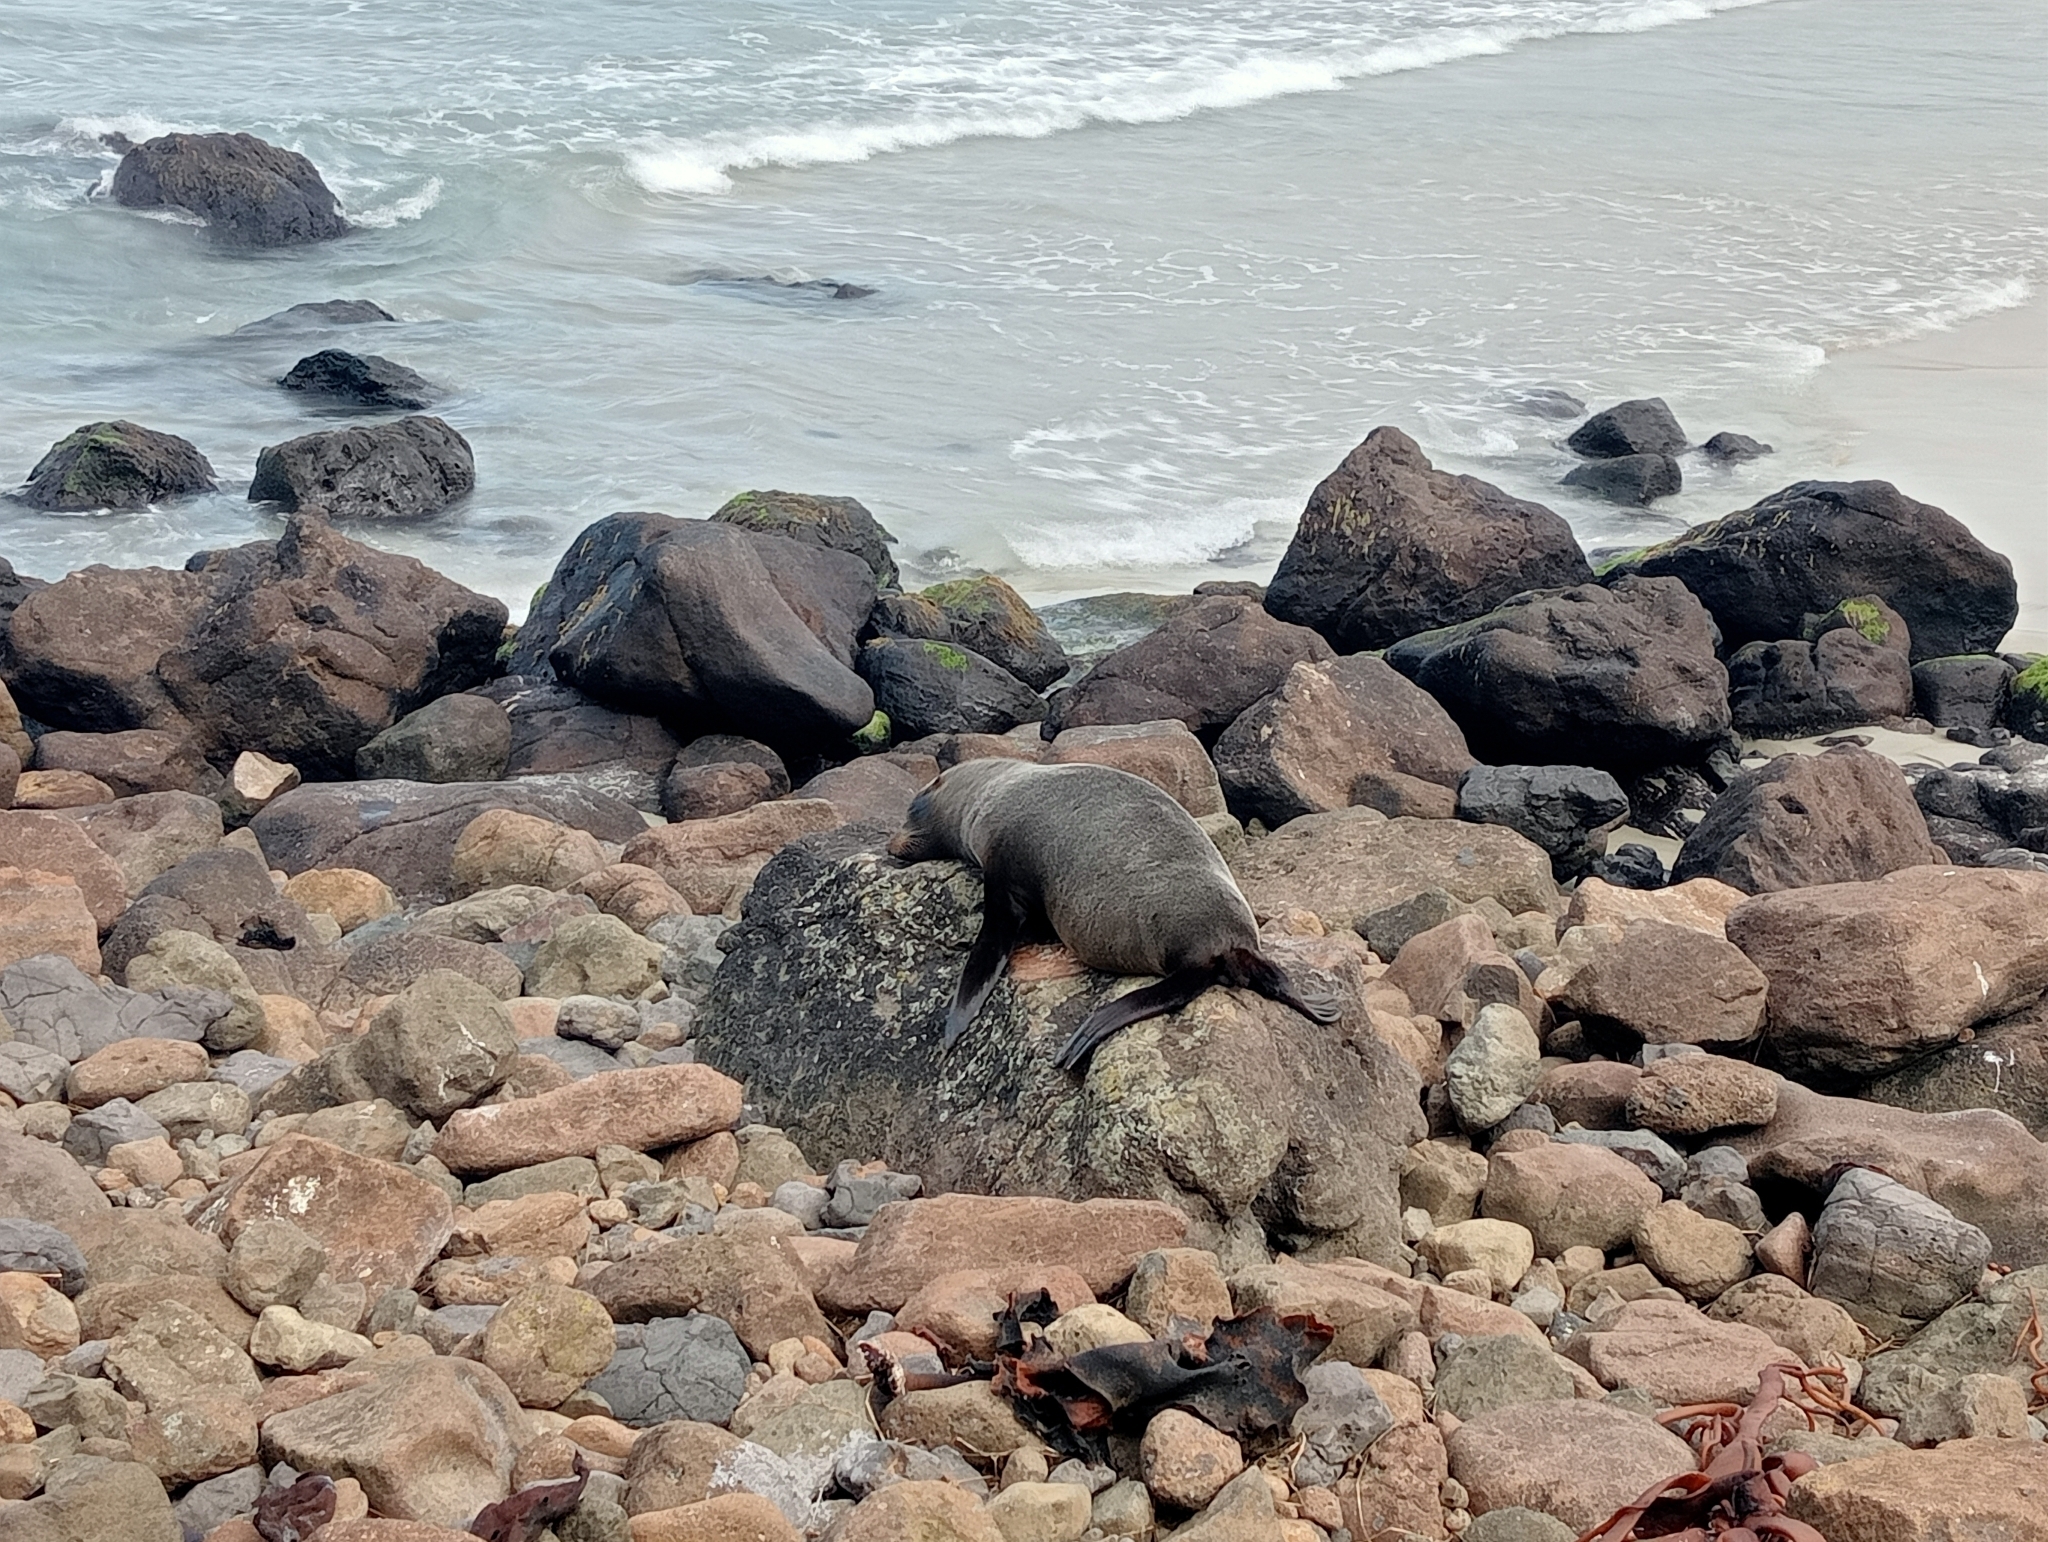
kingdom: Animalia
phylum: Chordata
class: Mammalia
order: Carnivora
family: Otariidae
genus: Arctocephalus
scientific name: Arctocephalus forsteri
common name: New zealand fur seal
